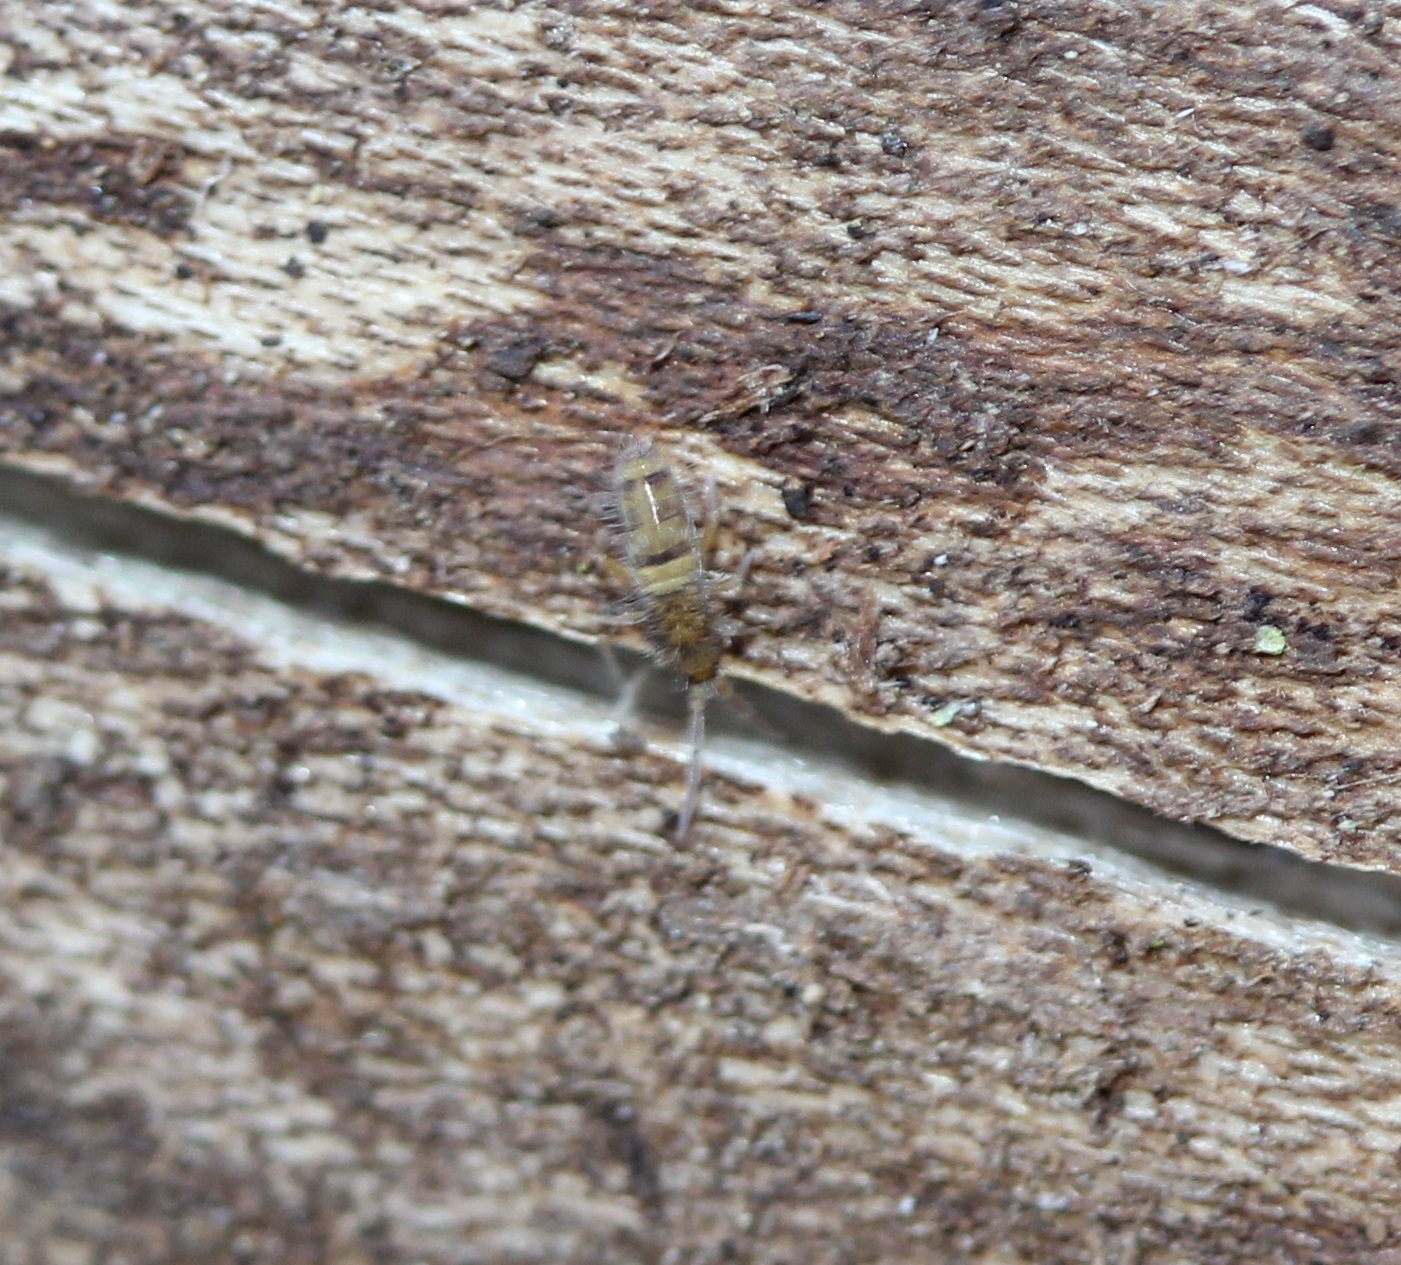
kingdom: Animalia
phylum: Arthropoda
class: Collembola
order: Entomobryomorpha
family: Entomobryidae
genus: Homidia
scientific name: Homidia sauteri
